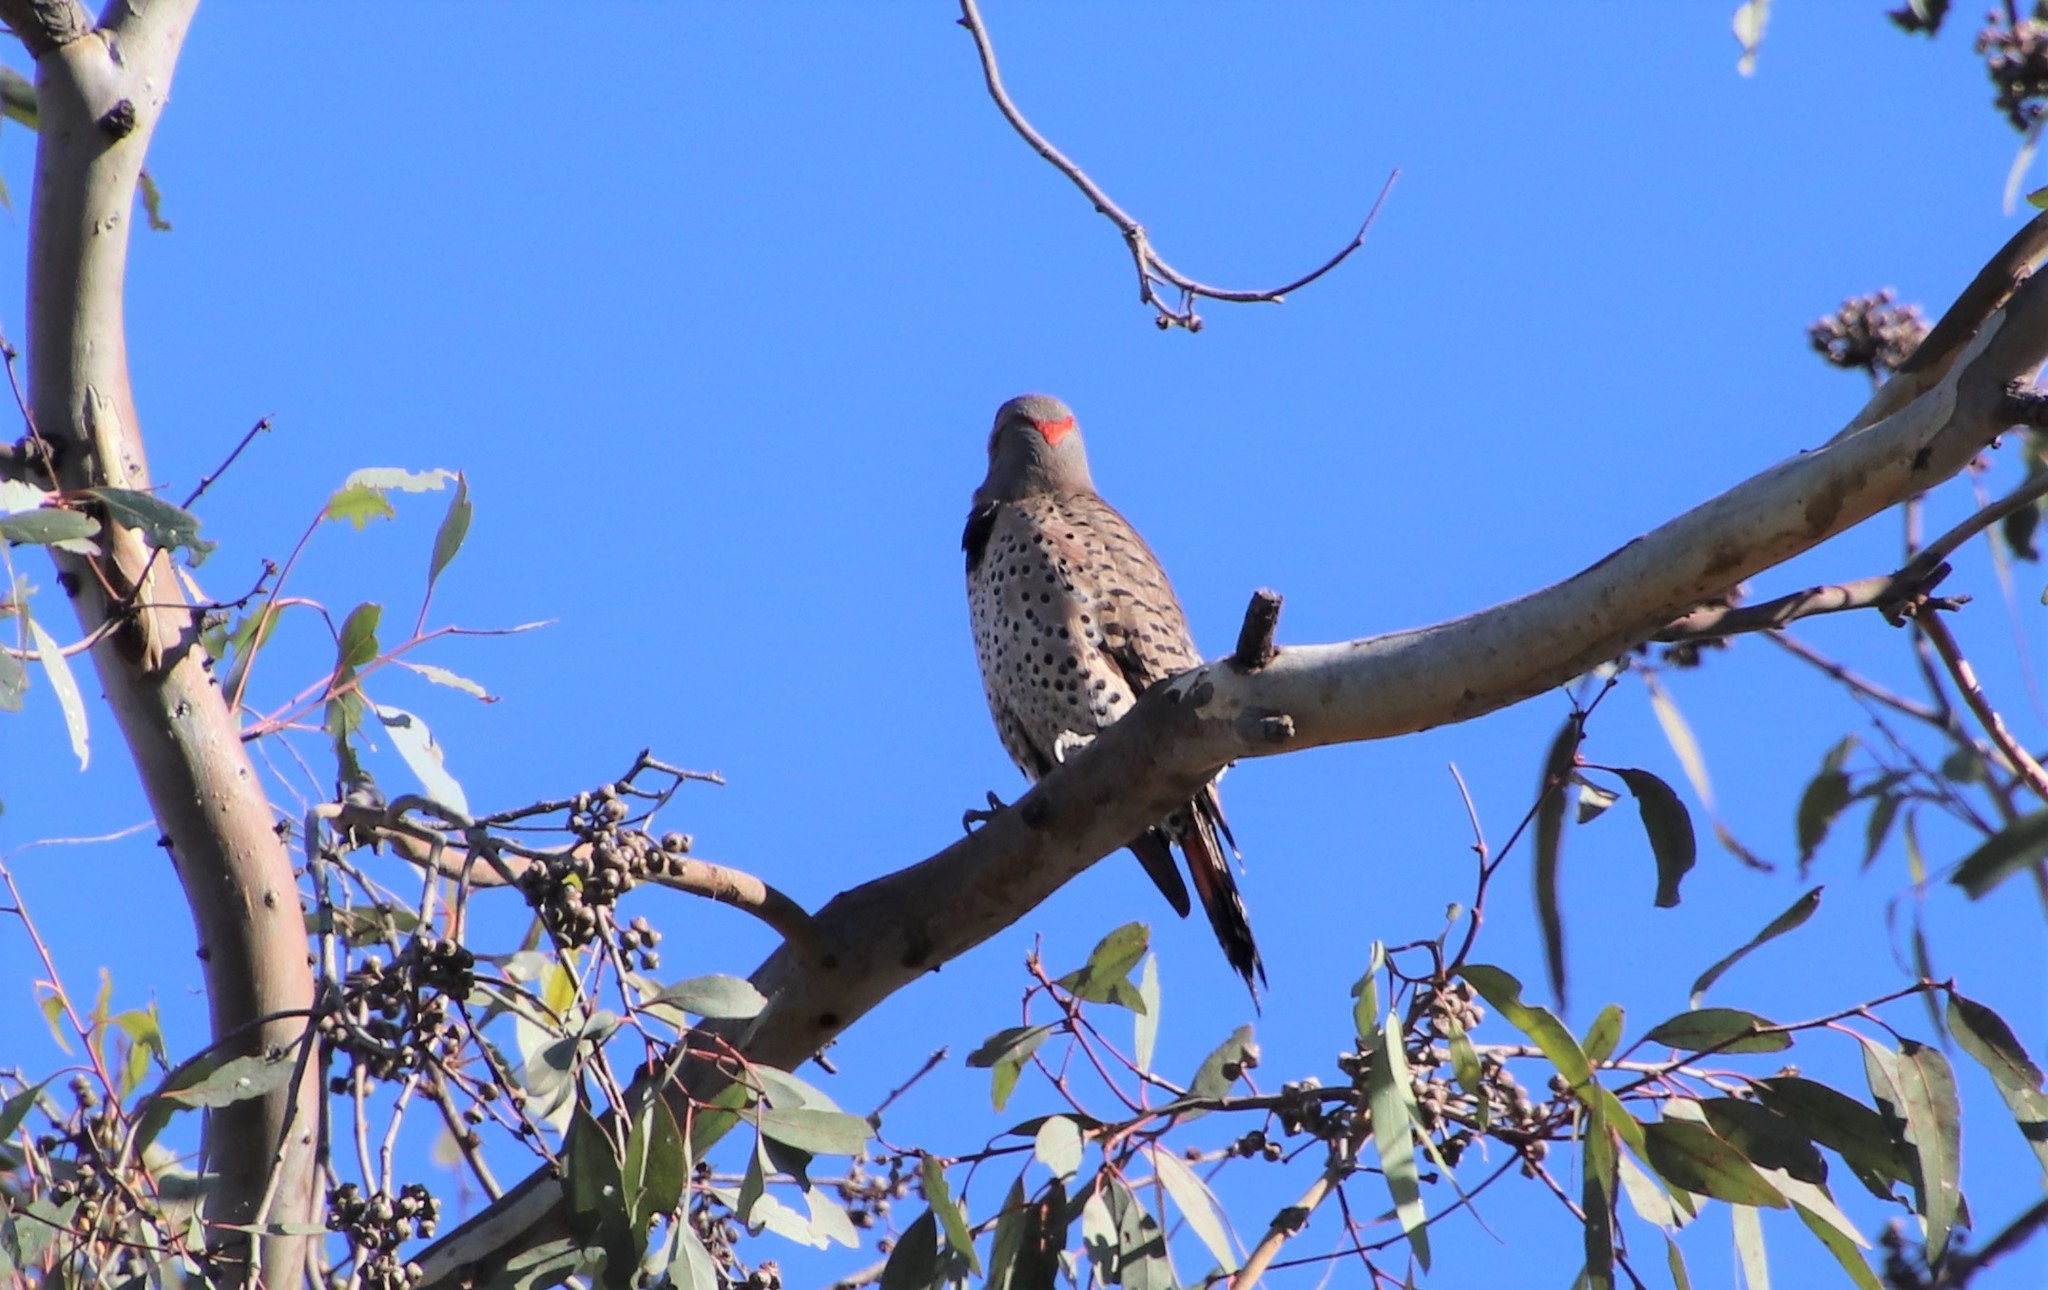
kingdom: Animalia
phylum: Chordata
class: Aves
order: Piciformes
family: Picidae
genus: Colaptes
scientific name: Colaptes
